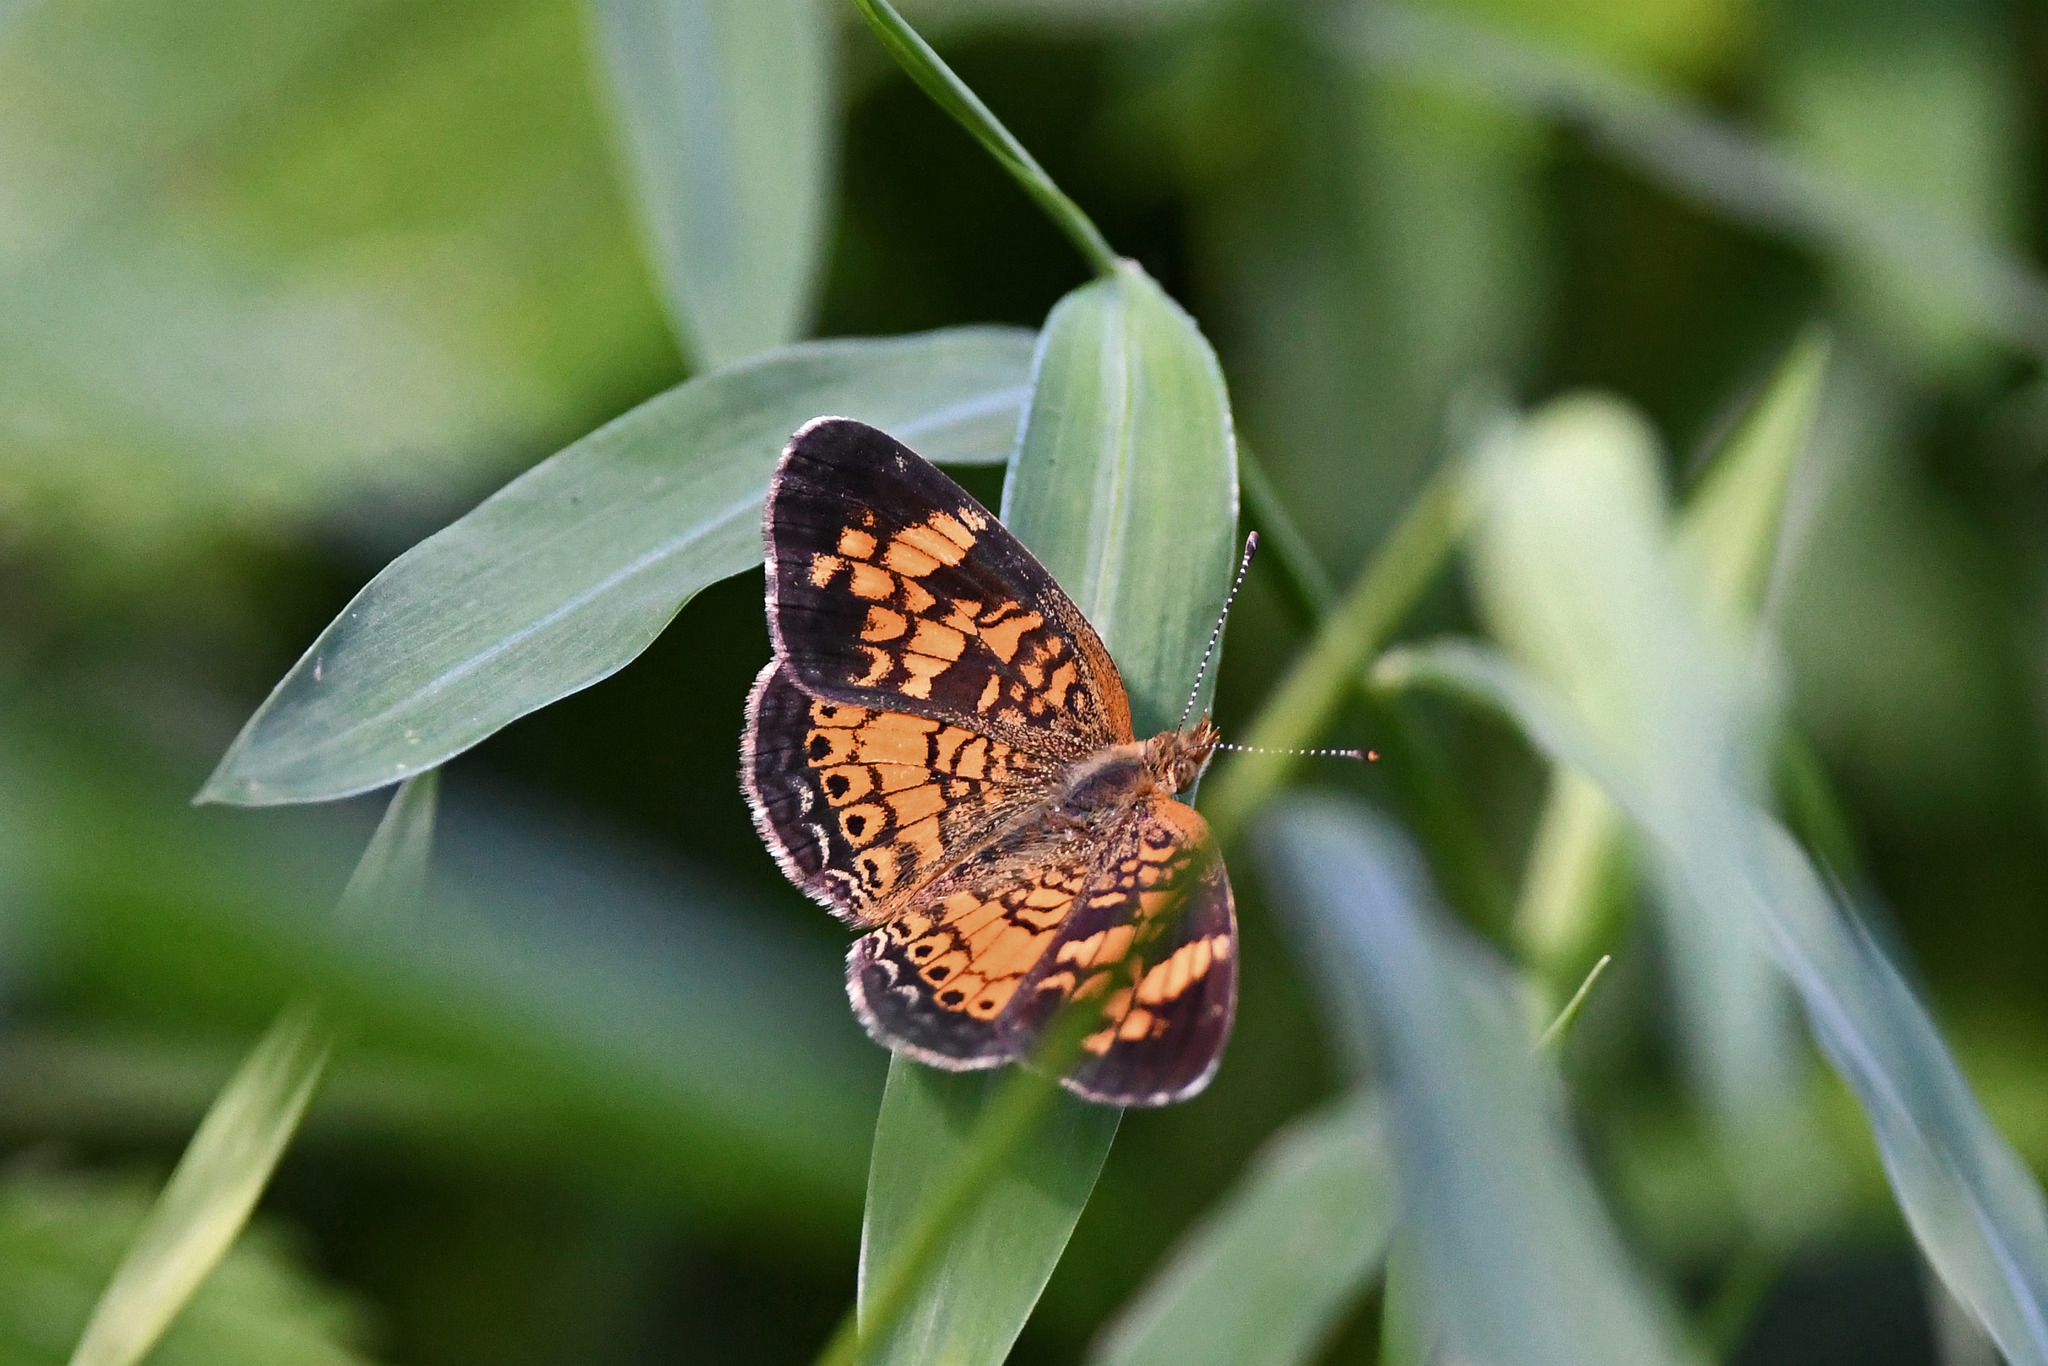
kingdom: Animalia
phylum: Arthropoda
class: Insecta
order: Lepidoptera
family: Nymphalidae
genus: Phyciodes
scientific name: Phyciodes tharos
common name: Pearl crescent
